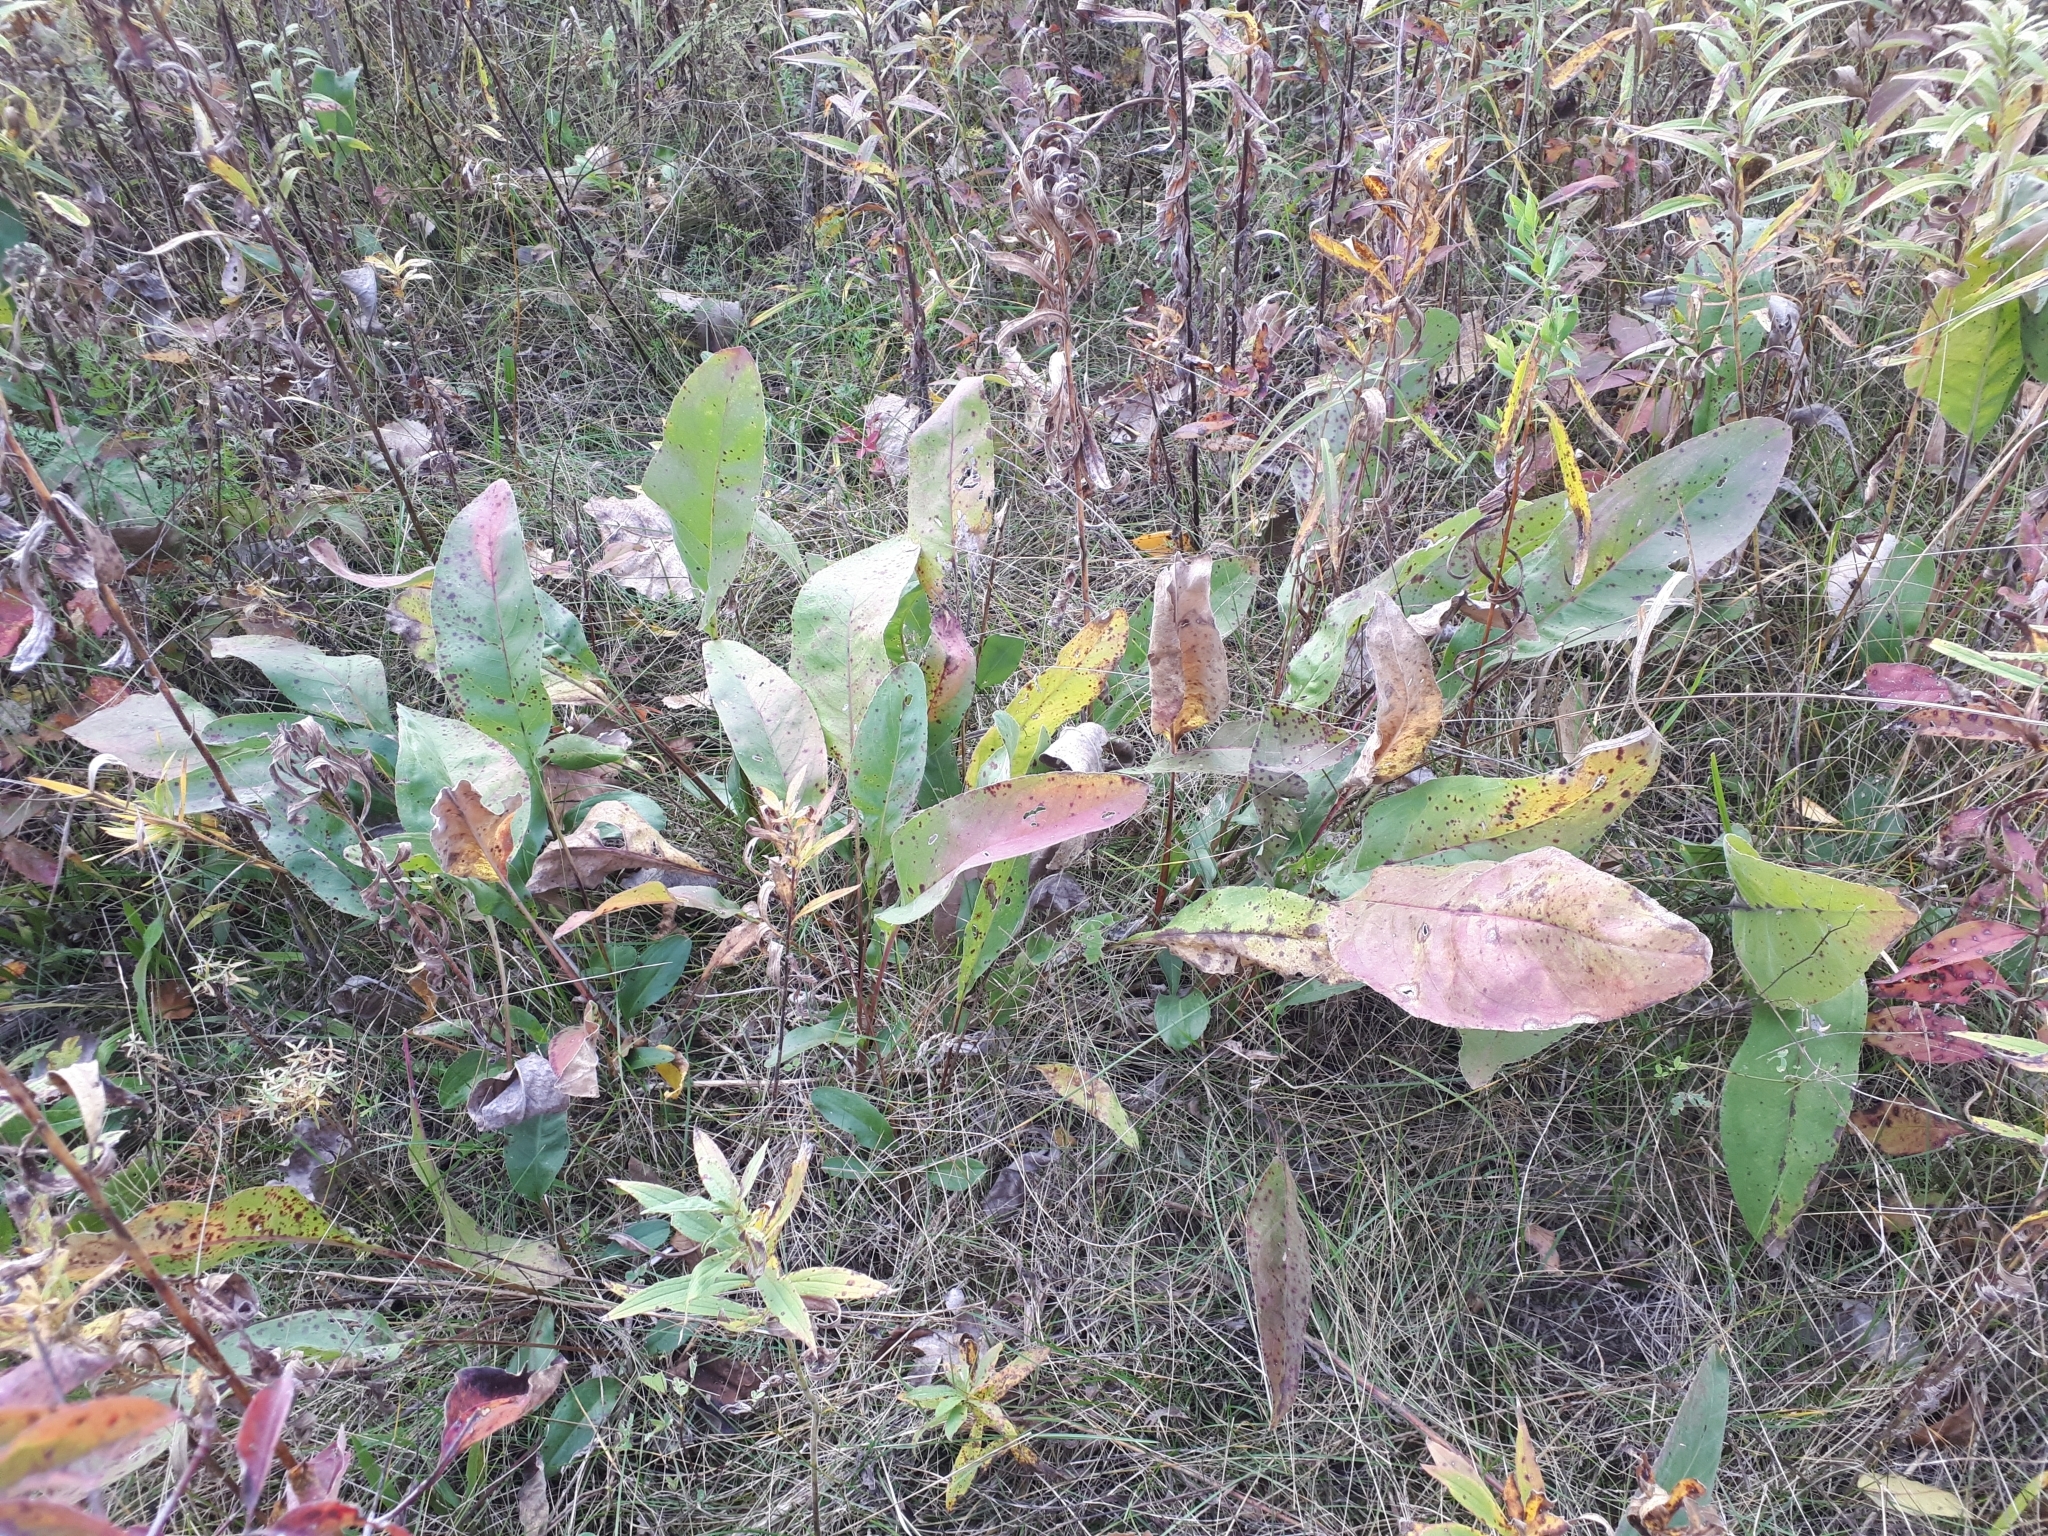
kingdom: Plantae
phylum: Tracheophyta
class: Magnoliopsida
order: Asterales
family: Asteraceae
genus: Solidago
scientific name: Solidago rigida
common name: Rigid goldenrod
